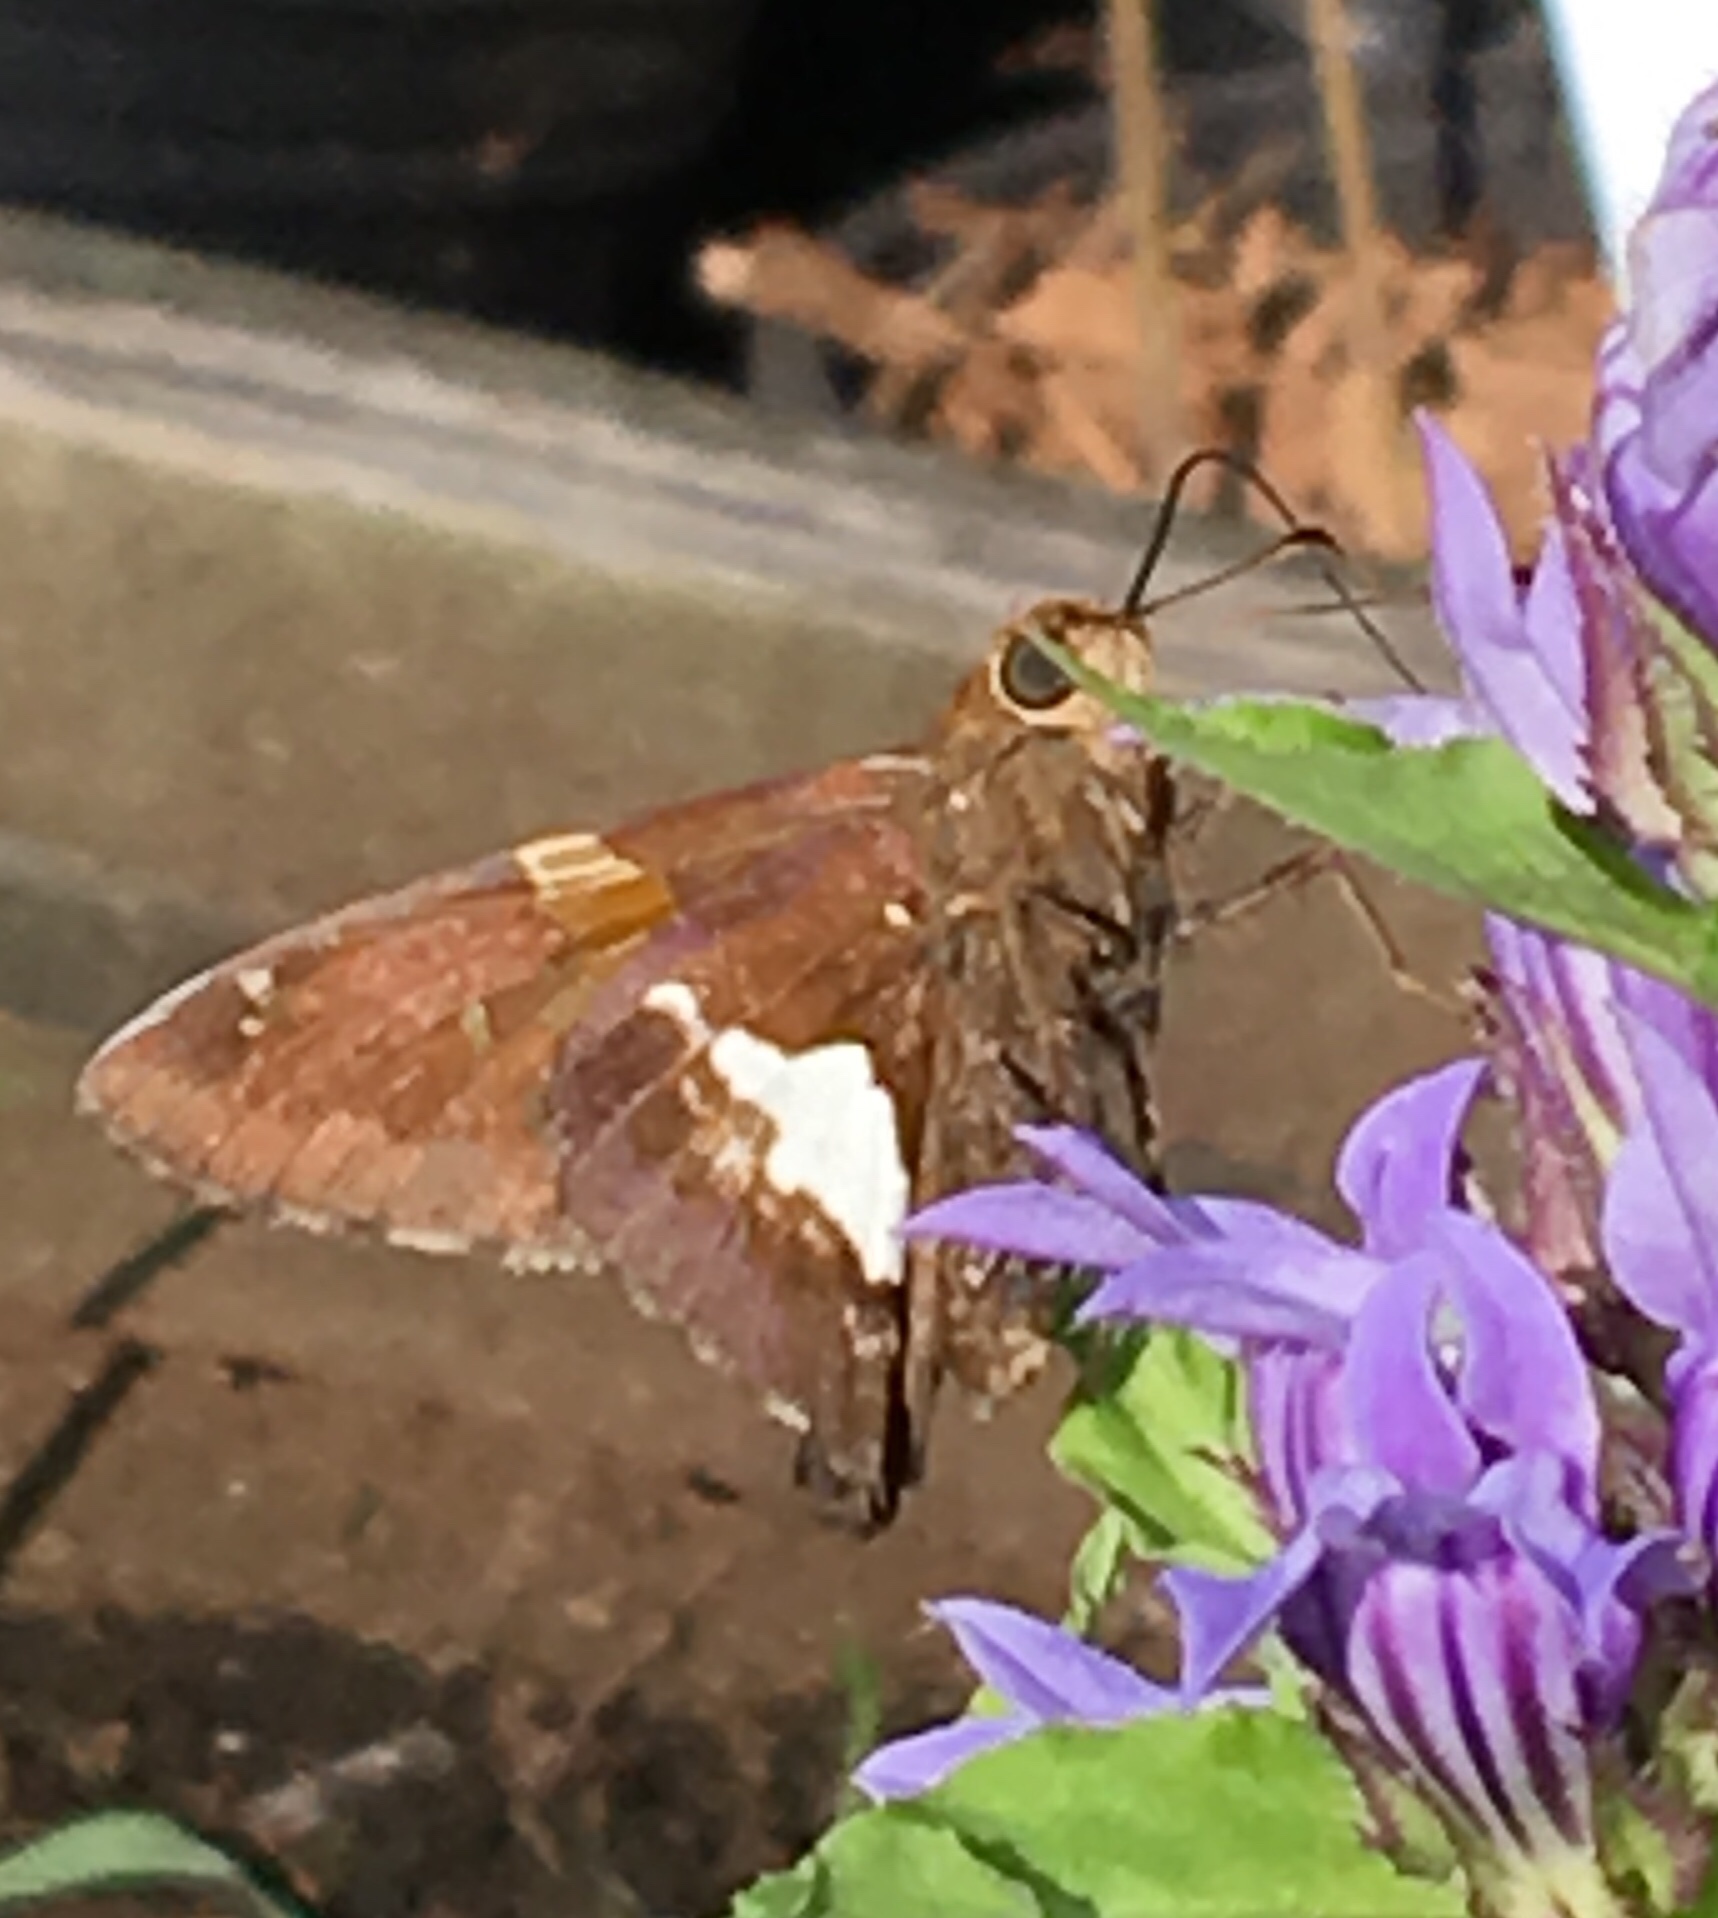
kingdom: Animalia
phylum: Arthropoda
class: Insecta
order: Lepidoptera
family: Hesperiidae
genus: Epargyreus
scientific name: Epargyreus clarus
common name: Silver-spotted skipper
